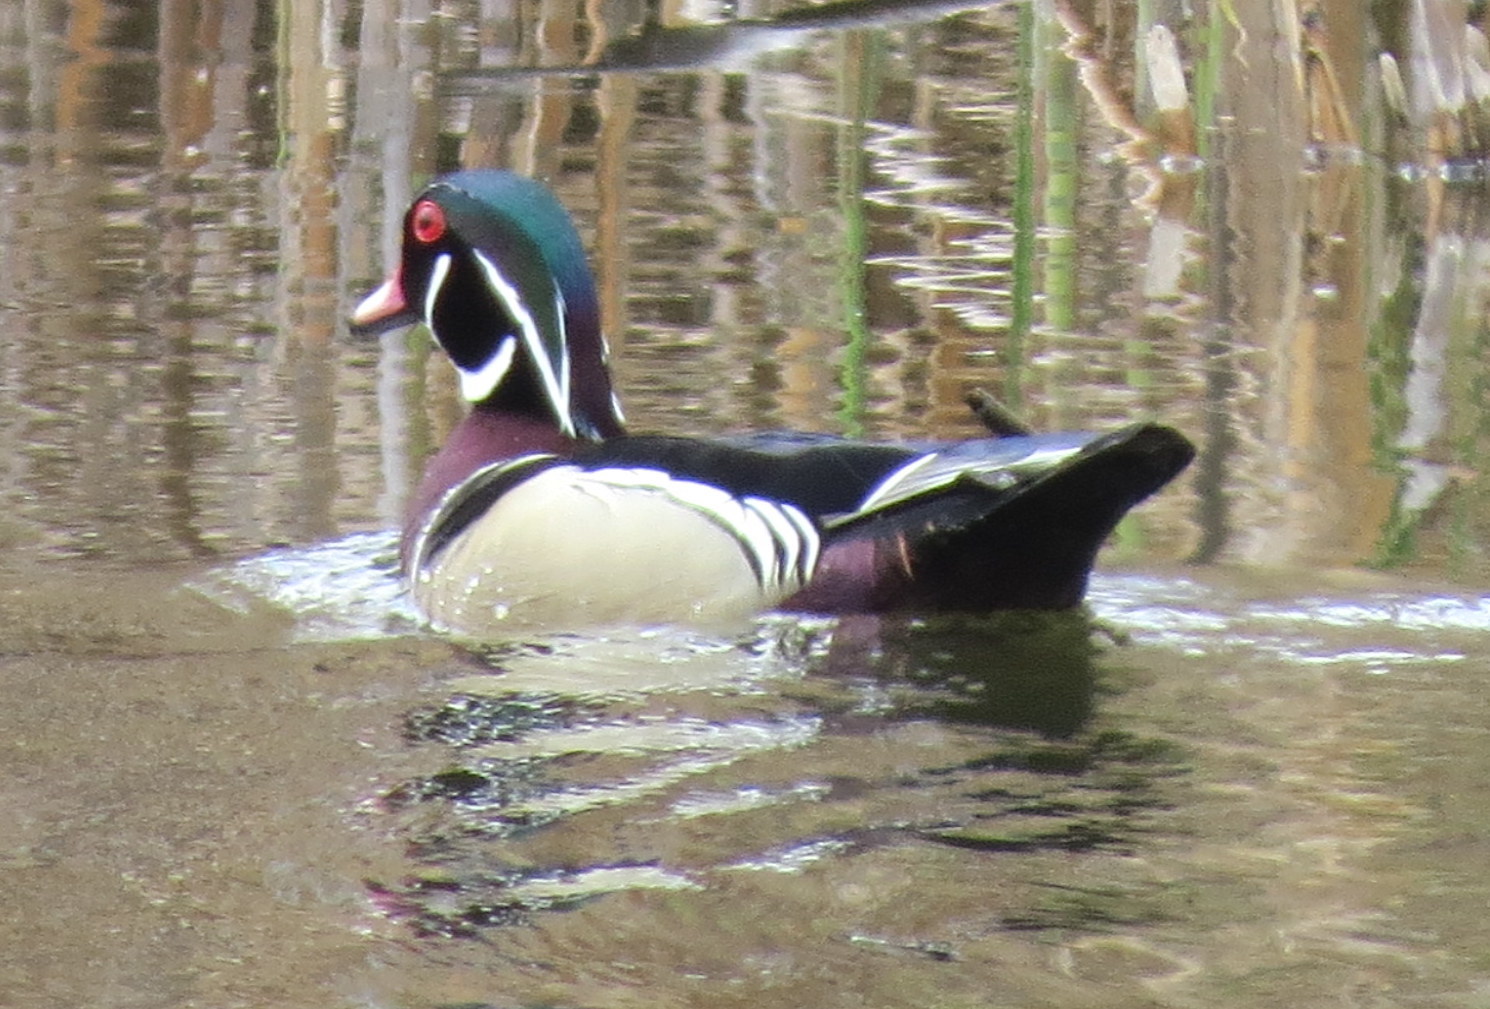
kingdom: Animalia
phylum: Chordata
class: Aves
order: Anseriformes
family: Anatidae
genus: Aix
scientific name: Aix sponsa
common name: Wood duck
